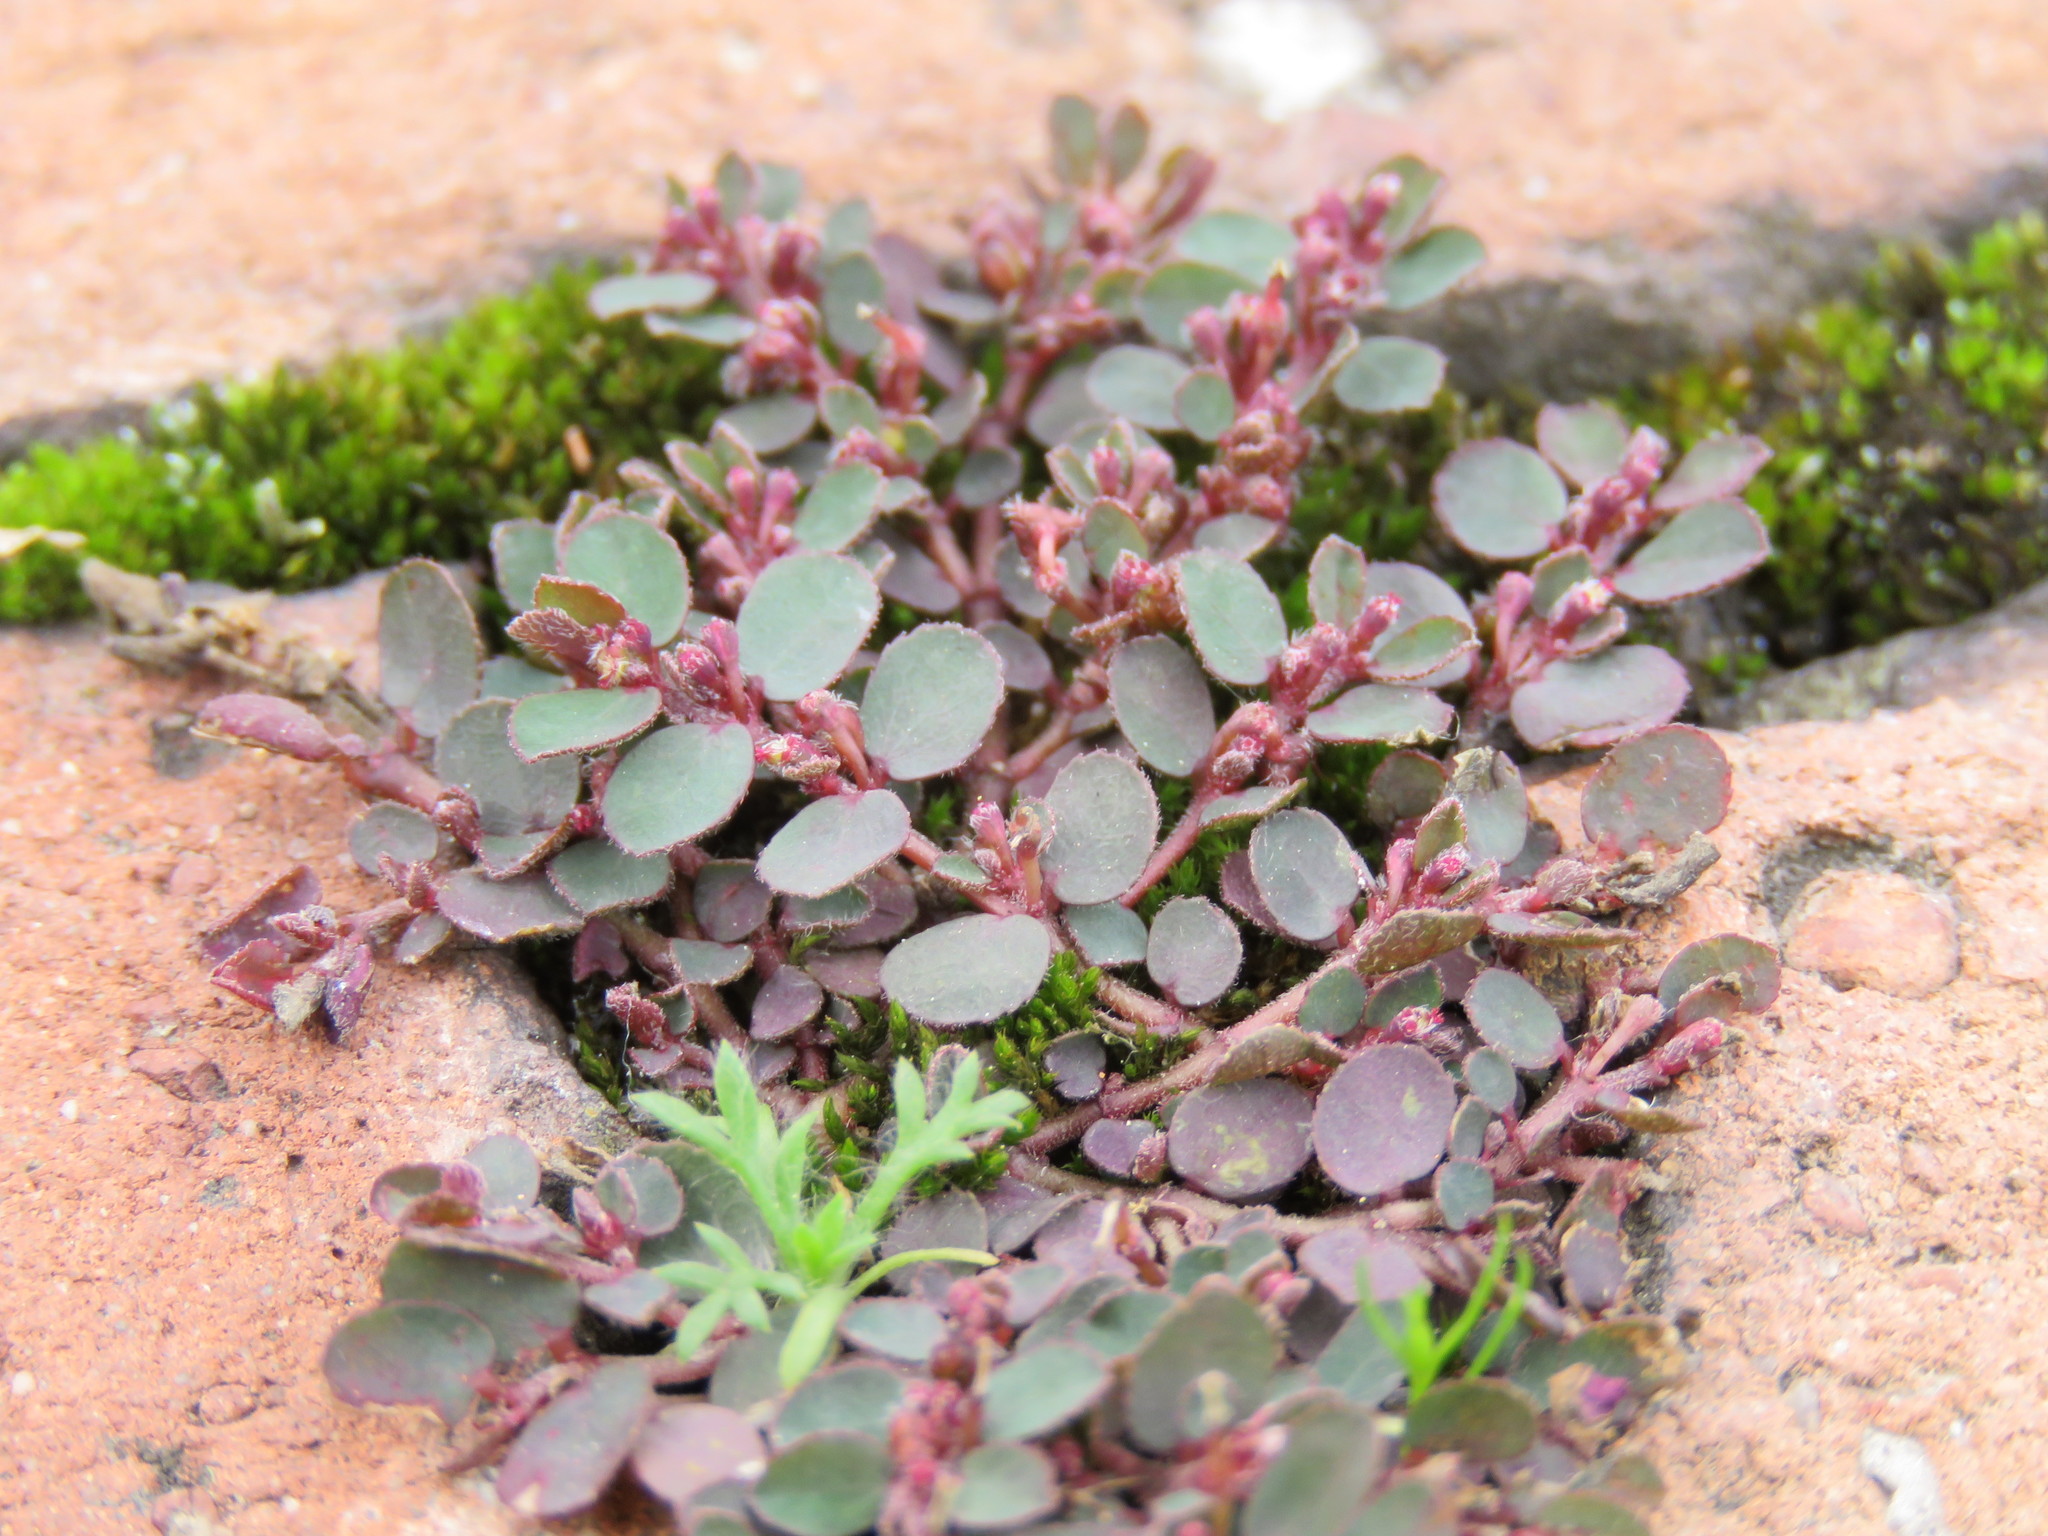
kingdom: Plantae
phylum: Tracheophyta
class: Magnoliopsida
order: Malpighiales
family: Euphorbiaceae
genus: Euphorbia
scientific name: Euphorbia prostrata
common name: Prostrate sandmat
